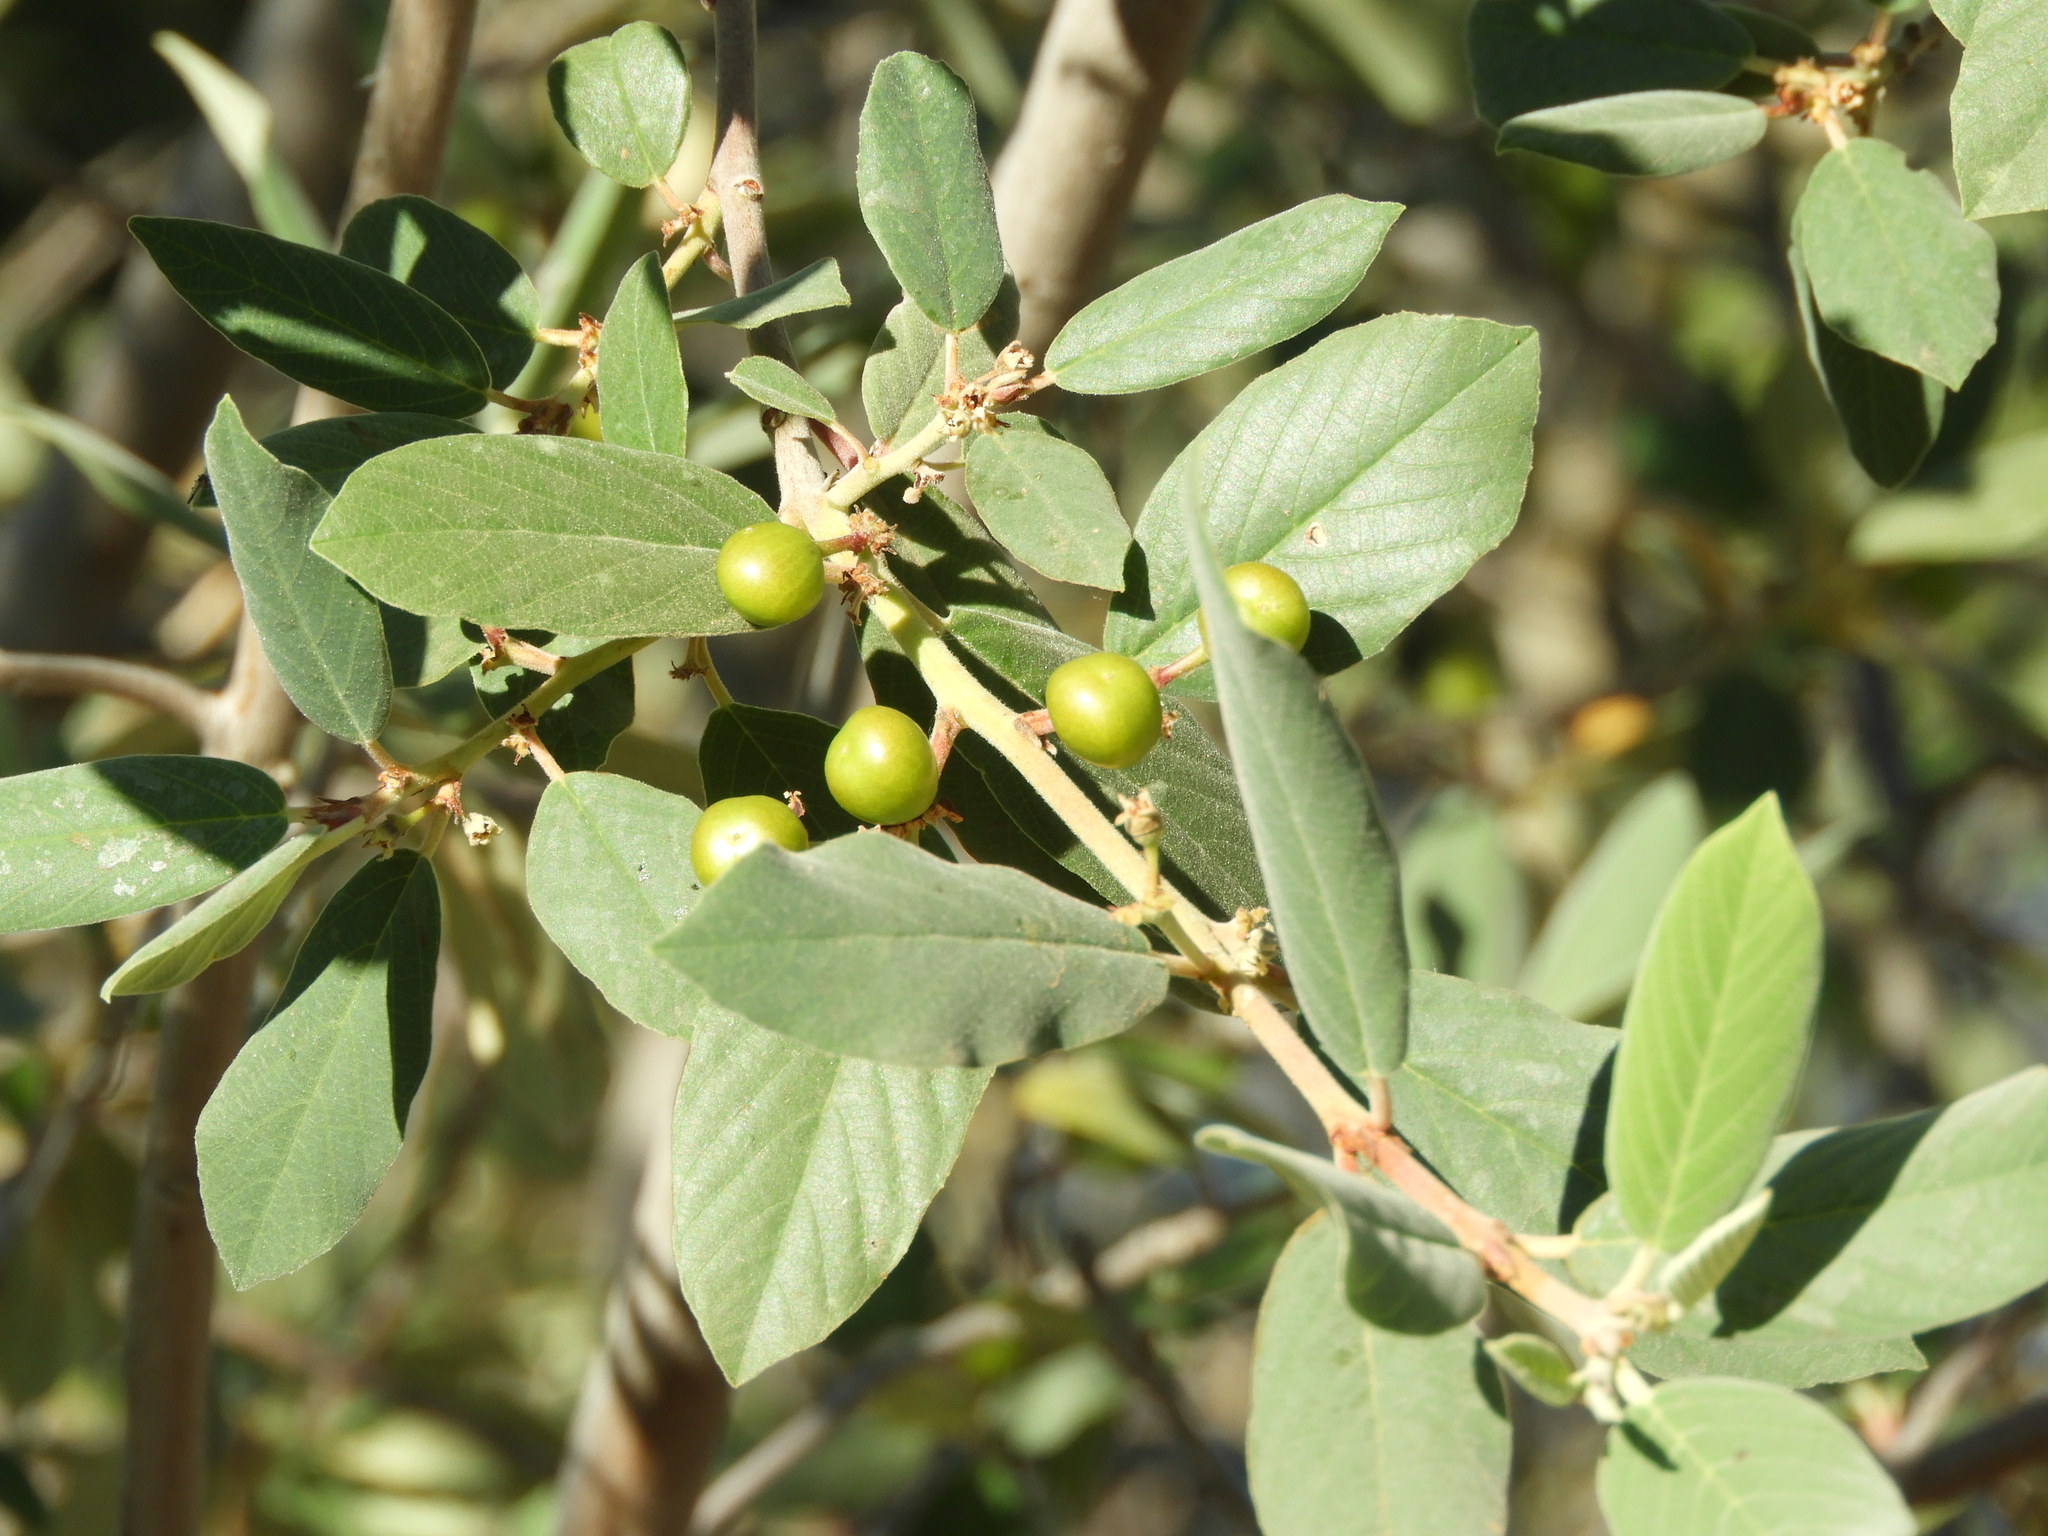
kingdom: Plantae
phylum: Tracheophyta
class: Magnoliopsida
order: Rosales
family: Rhamnaceae
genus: Frangula
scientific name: Frangula californica
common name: California buckthorn
